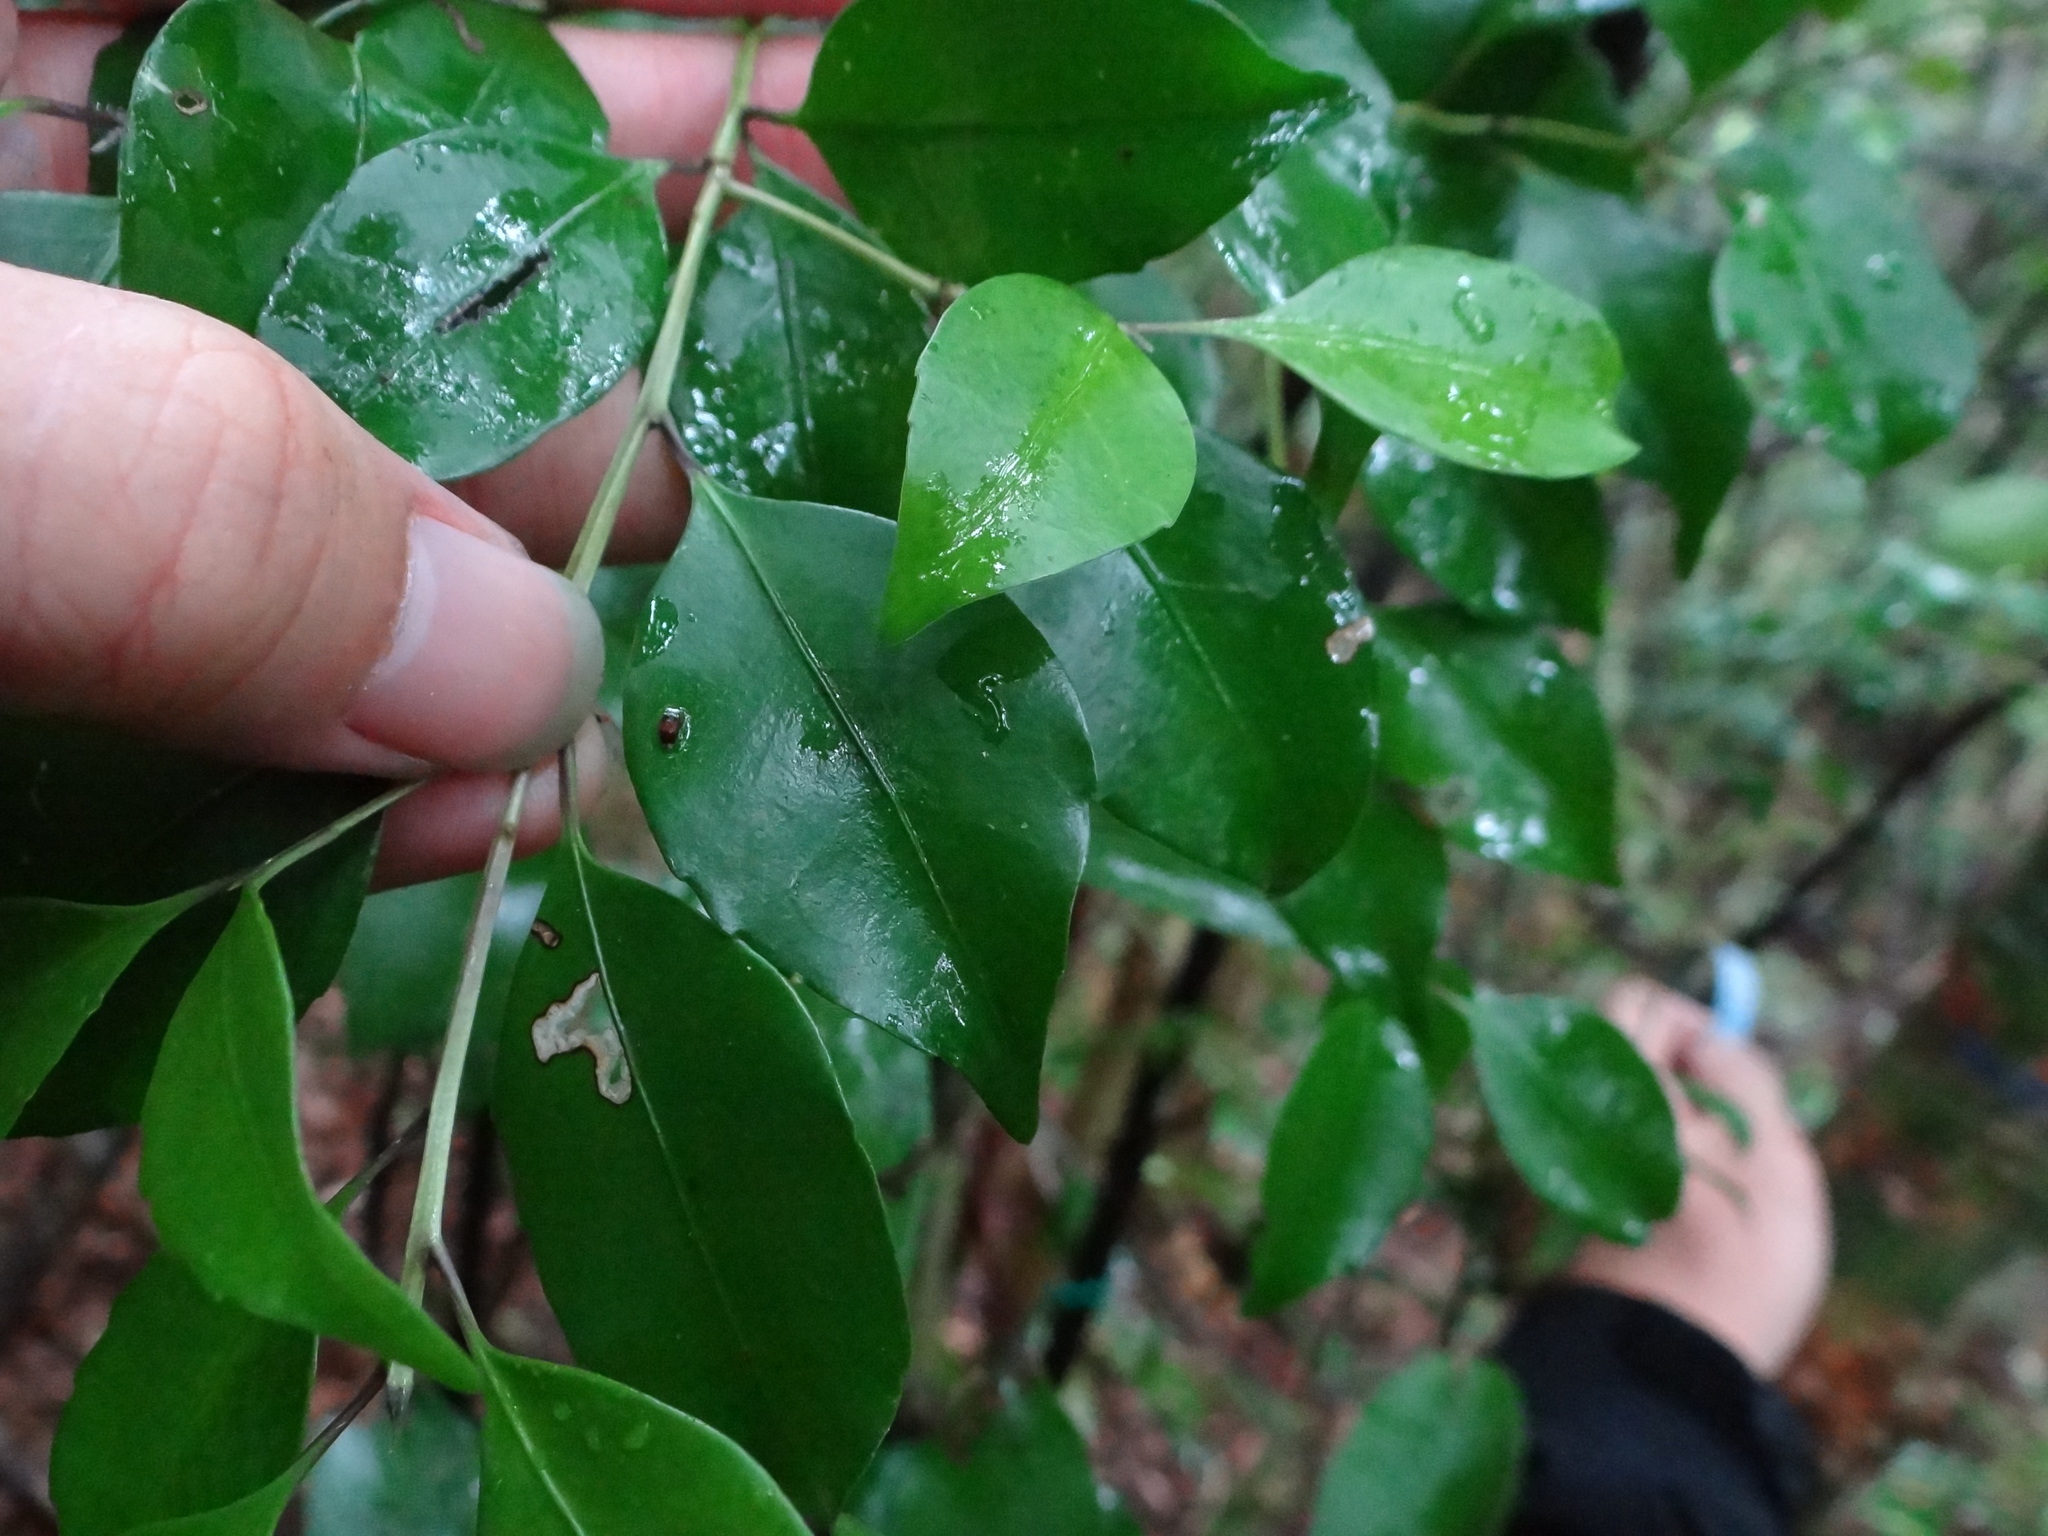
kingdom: Plantae
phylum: Tracheophyta
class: Magnoliopsida
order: Ericales
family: Symplocaceae
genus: Symplocos
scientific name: Symplocos shilanensis
